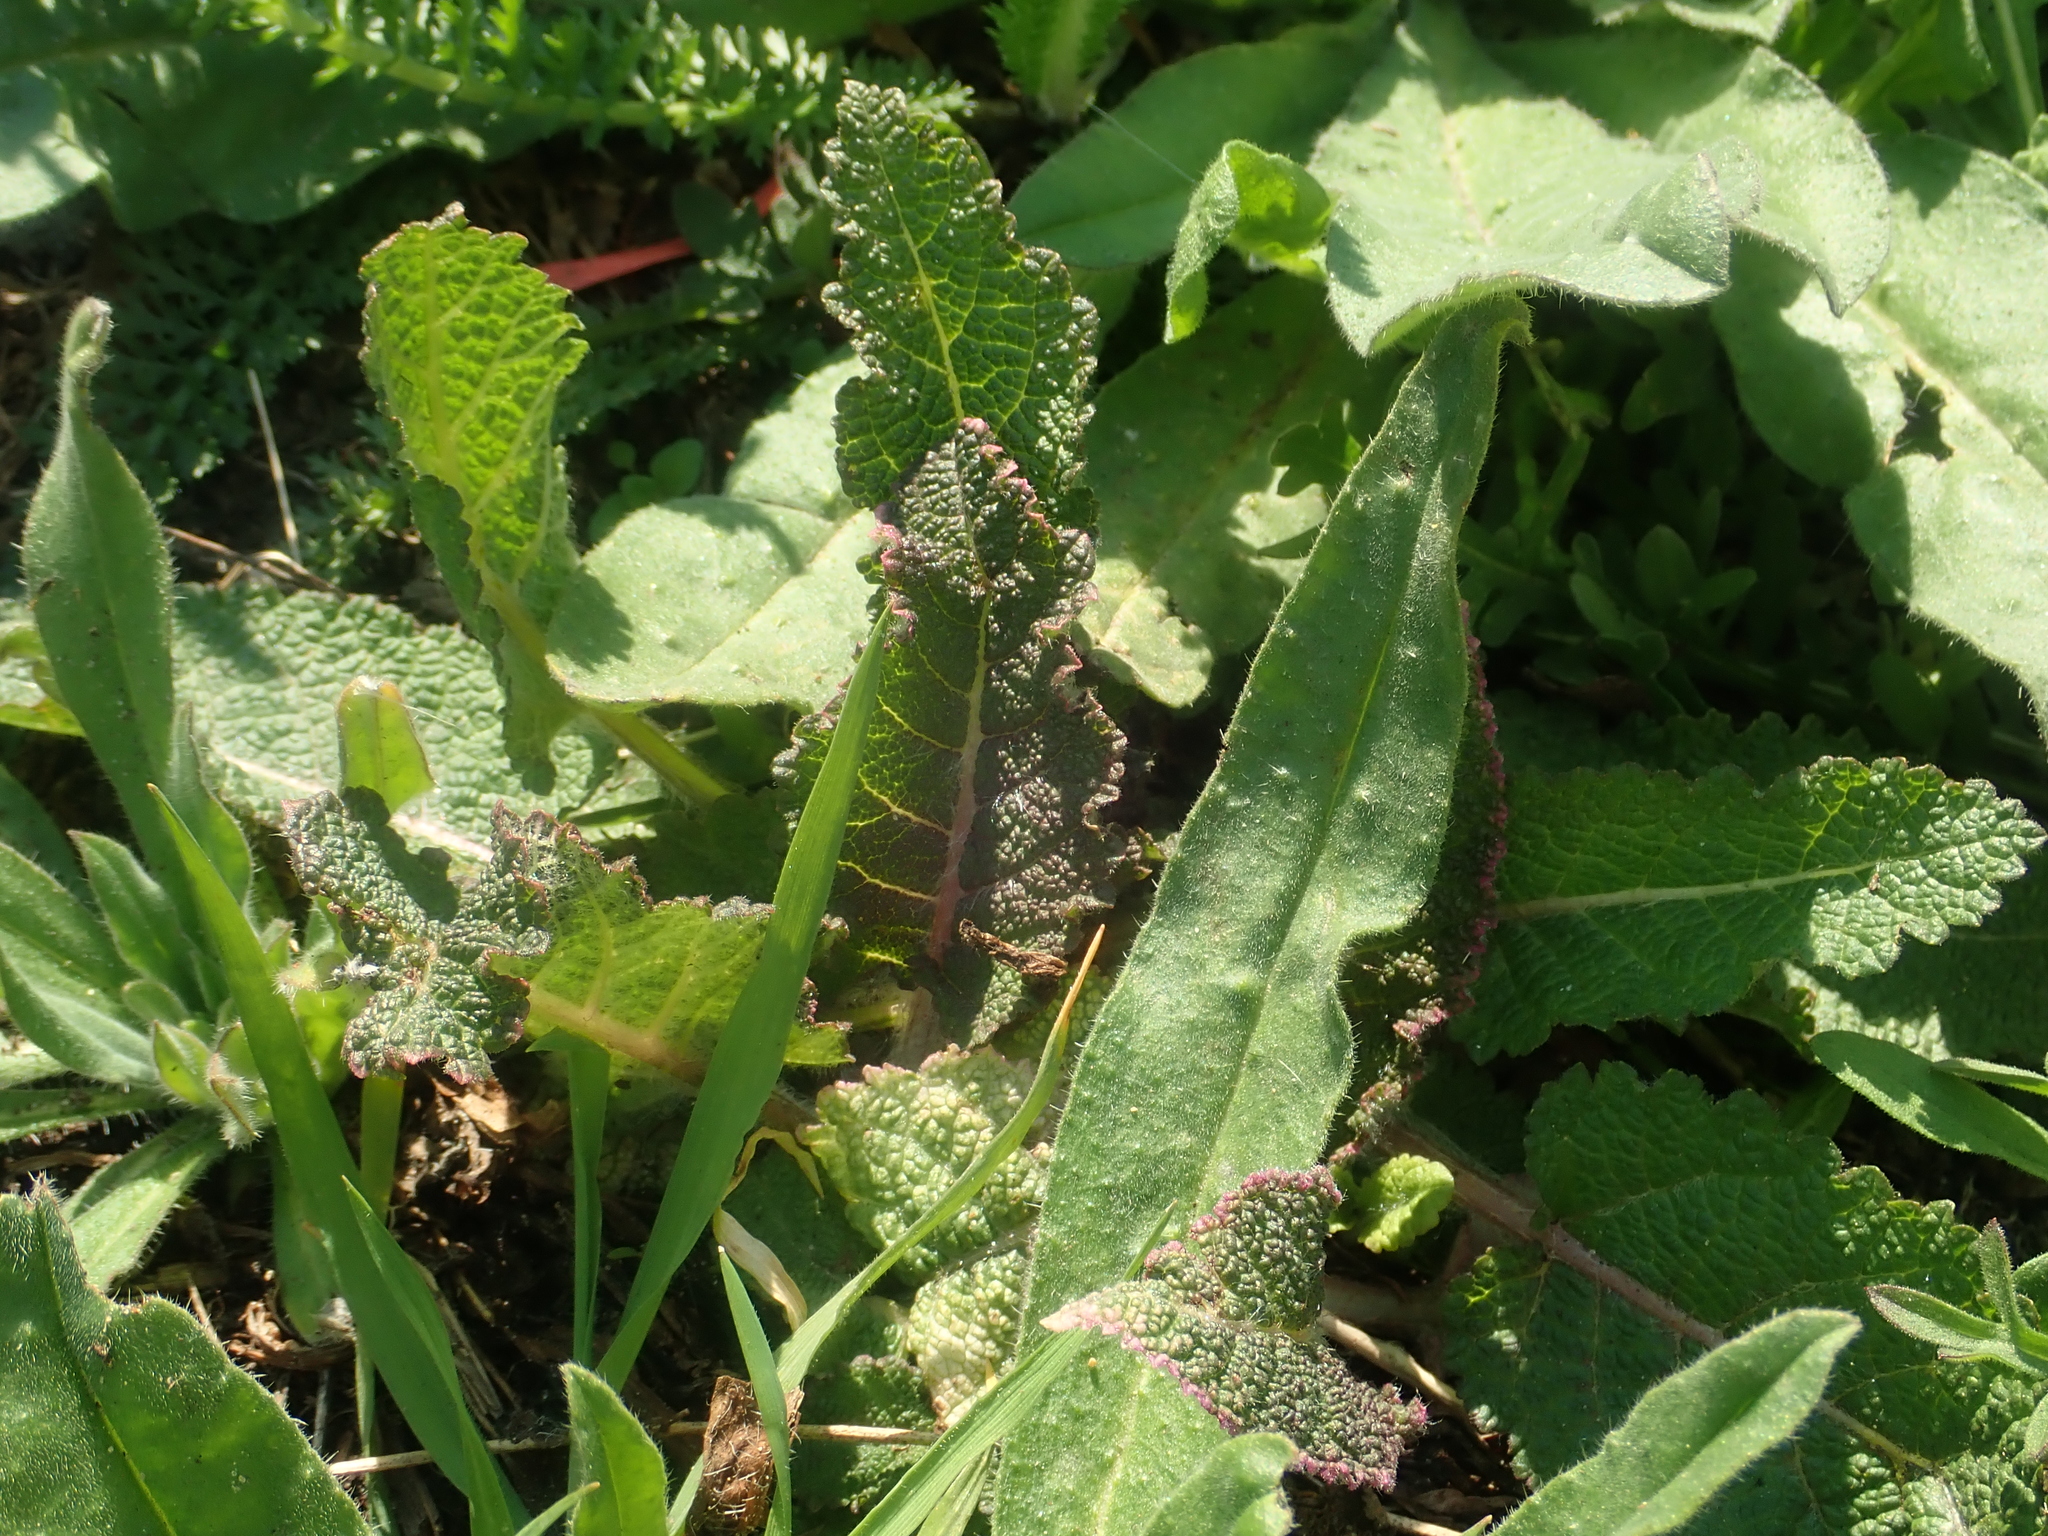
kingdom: Plantae
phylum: Tracheophyta
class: Magnoliopsida
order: Lamiales
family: Lamiaceae
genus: Salvia
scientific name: Salvia pratensis
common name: Meadow sage
